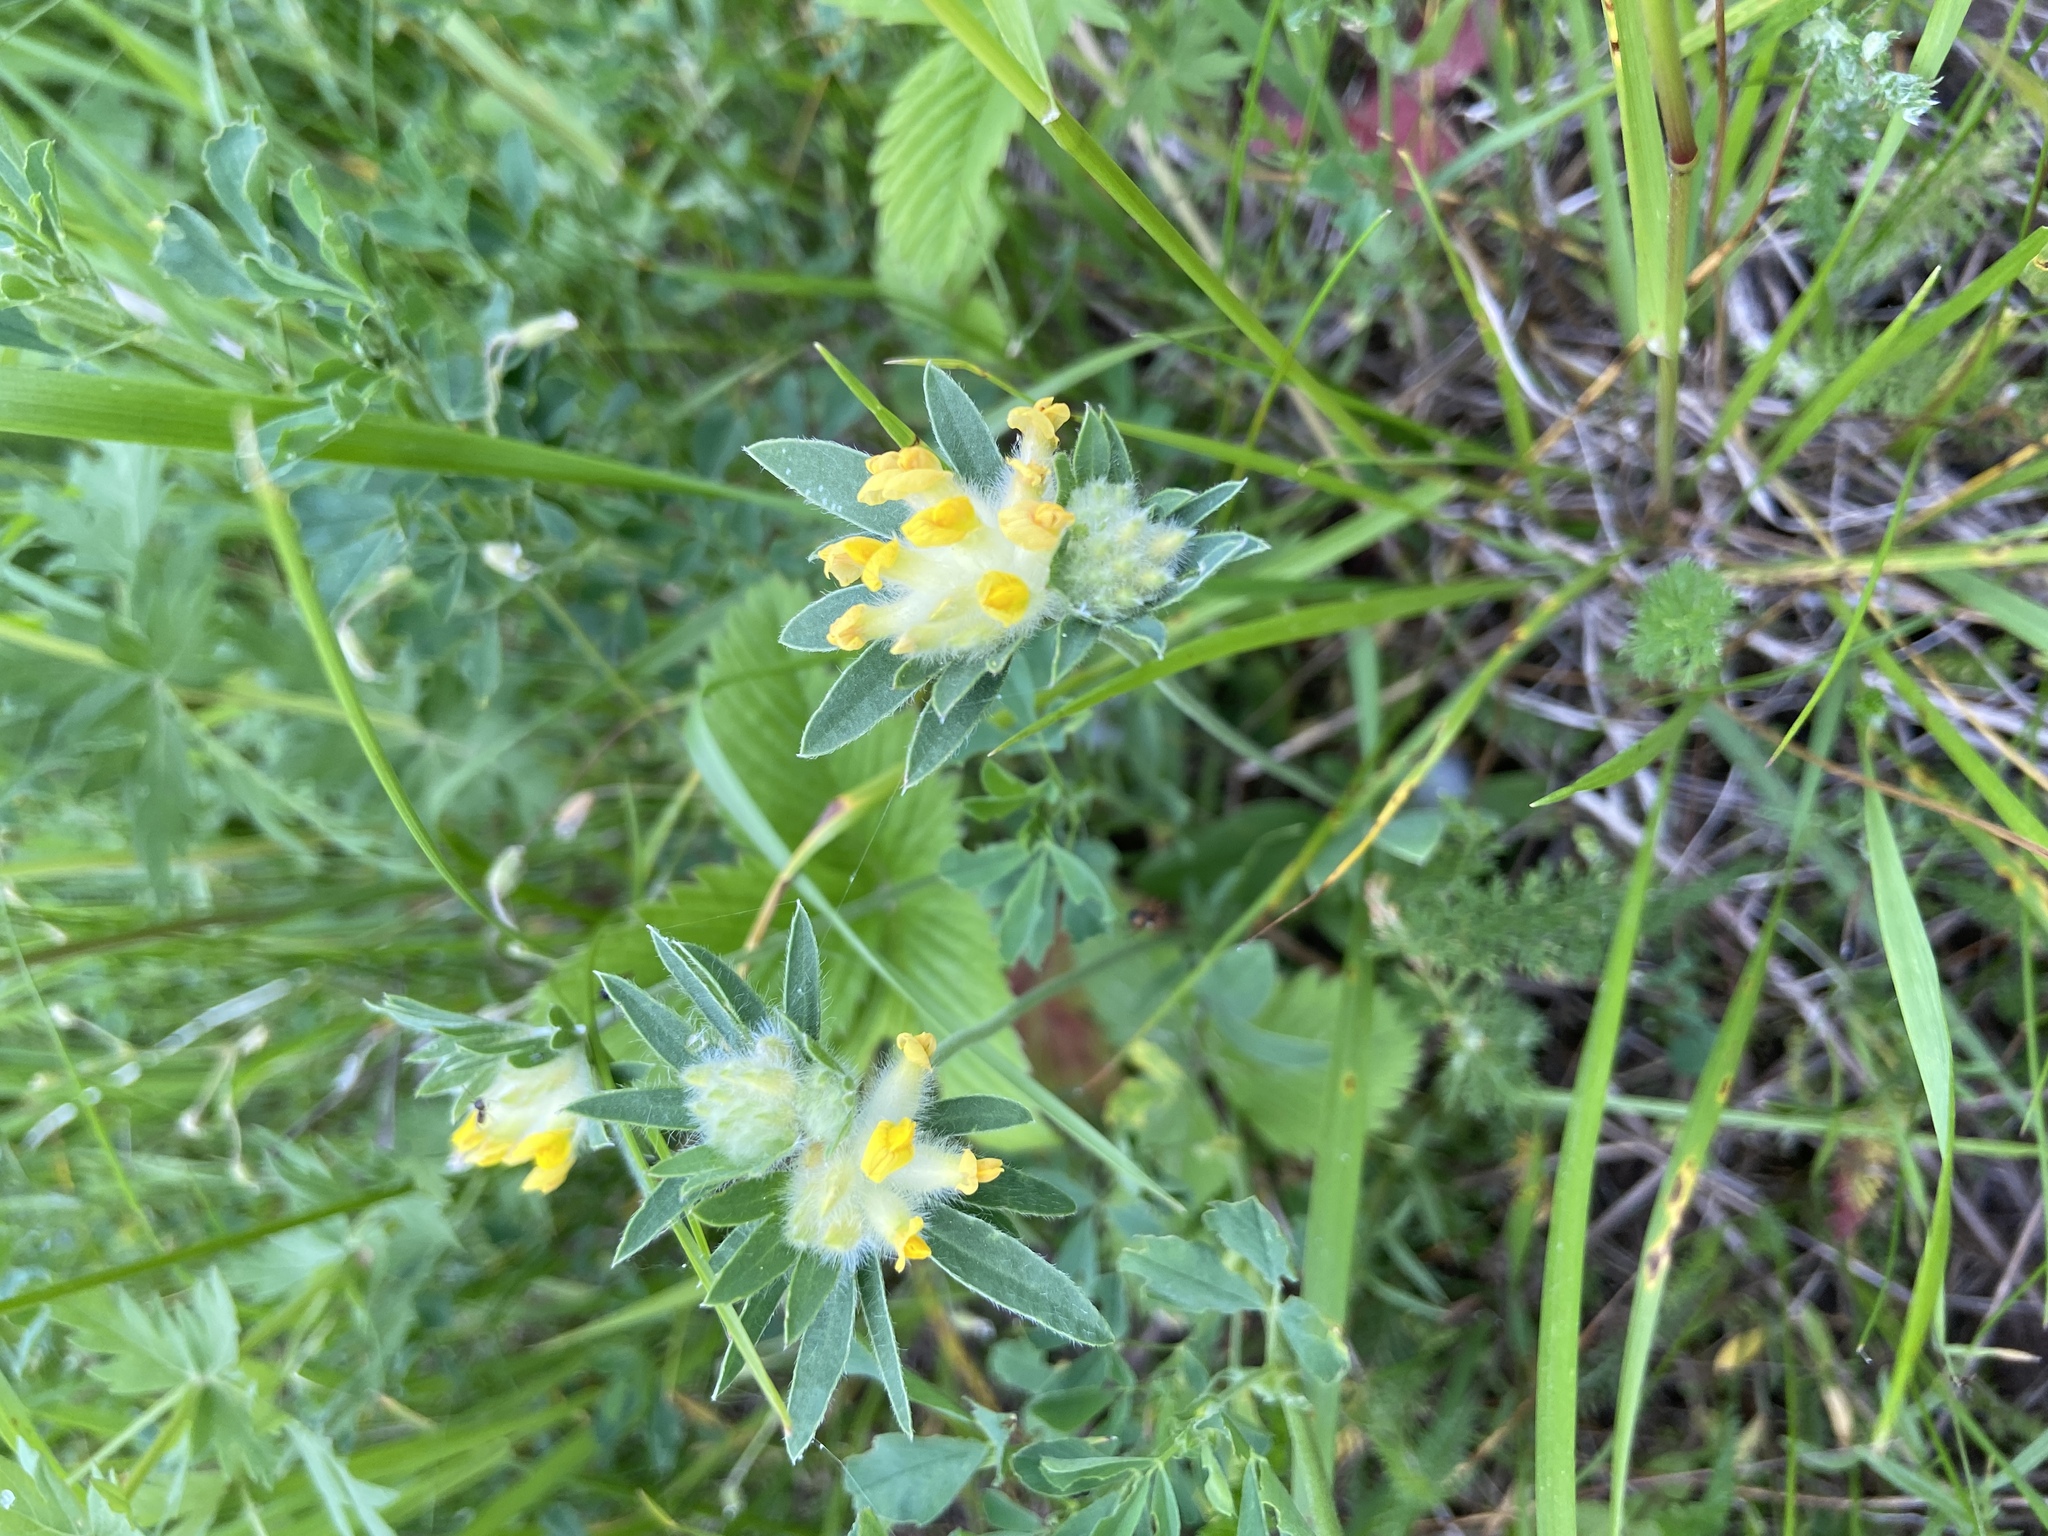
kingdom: Plantae
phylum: Tracheophyta
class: Magnoliopsida
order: Fabales
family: Fabaceae
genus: Anthyllis
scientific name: Anthyllis vulneraria
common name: Kidney vetch
